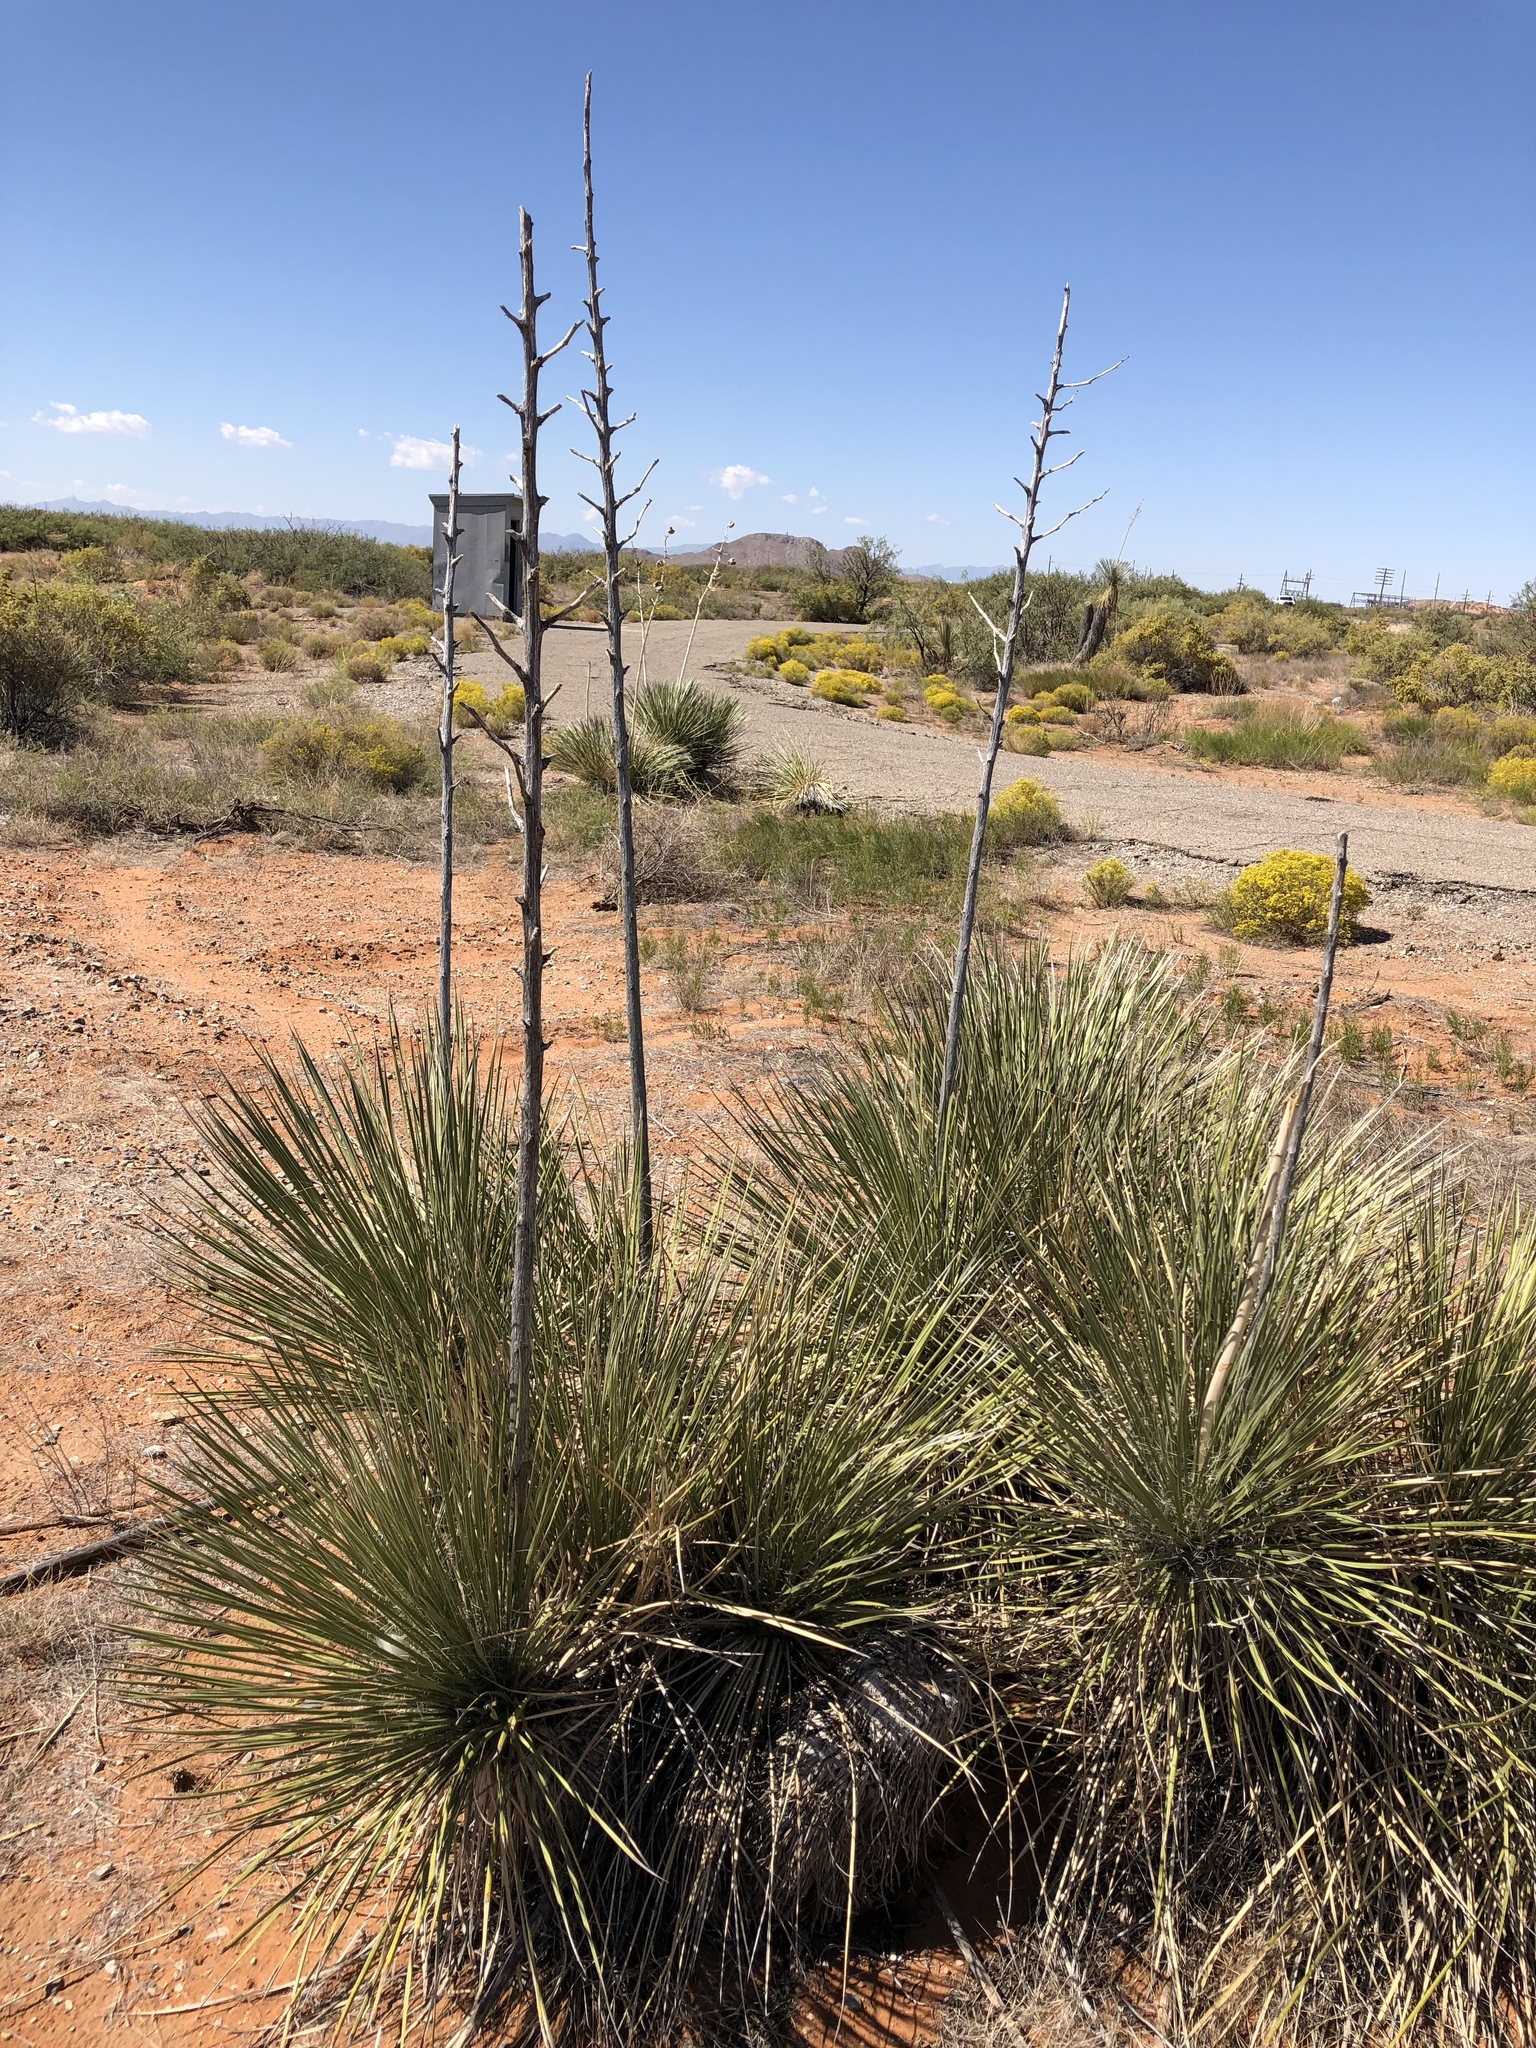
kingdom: Plantae
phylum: Tracheophyta
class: Liliopsida
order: Asparagales
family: Asparagaceae
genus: Yucca
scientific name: Yucca elata
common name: Palmella
